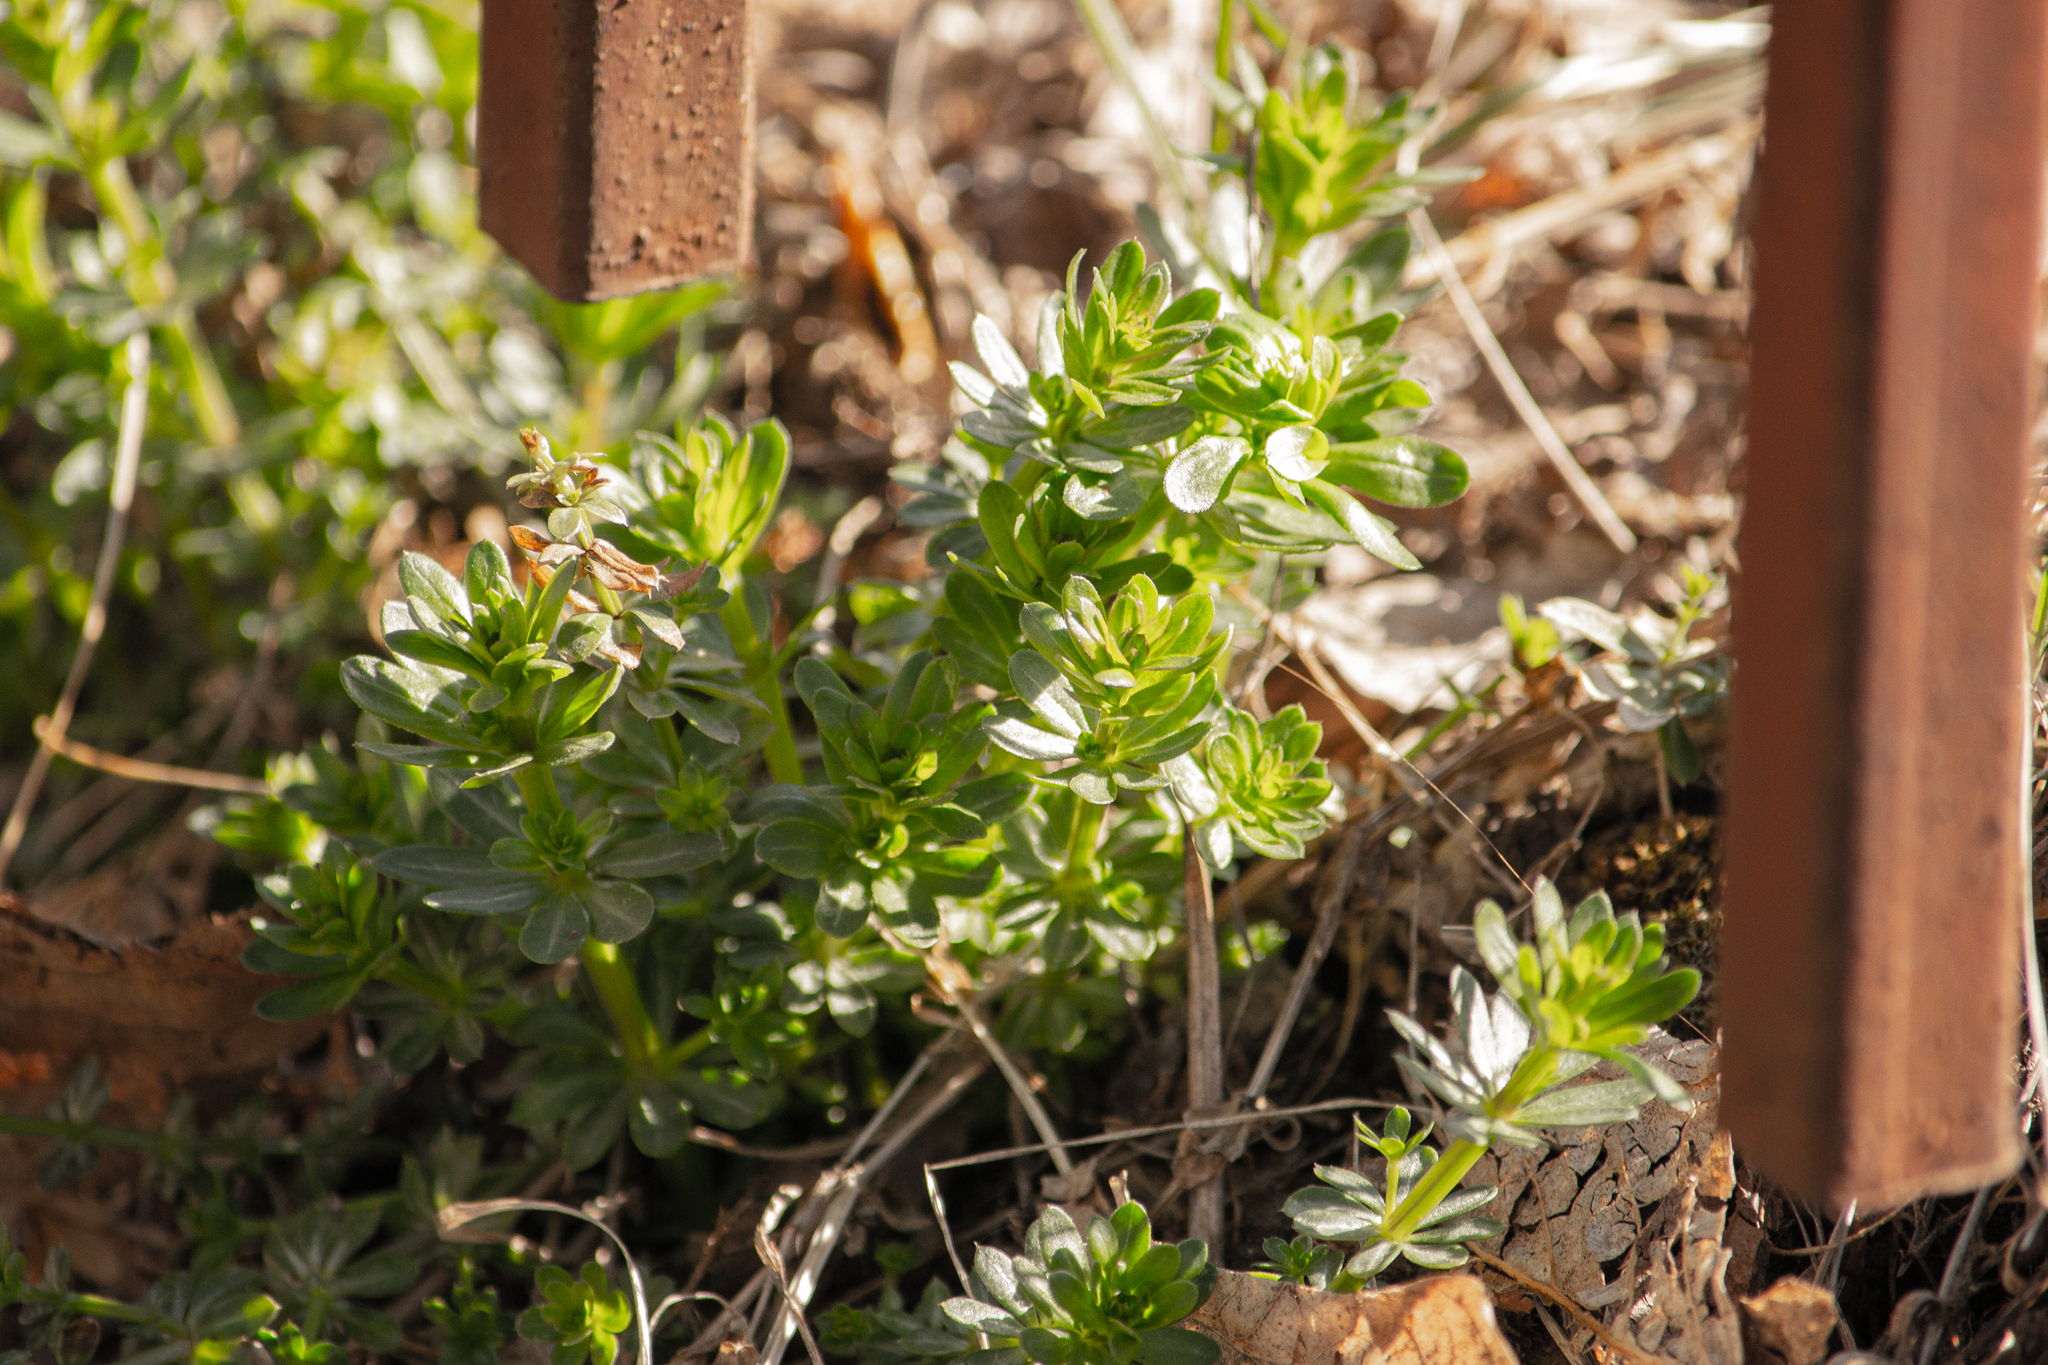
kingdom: Plantae
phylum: Tracheophyta
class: Magnoliopsida
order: Gentianales
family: Rubiaceae
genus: Galium
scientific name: Galium mollugo
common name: Hedge bedstraw
